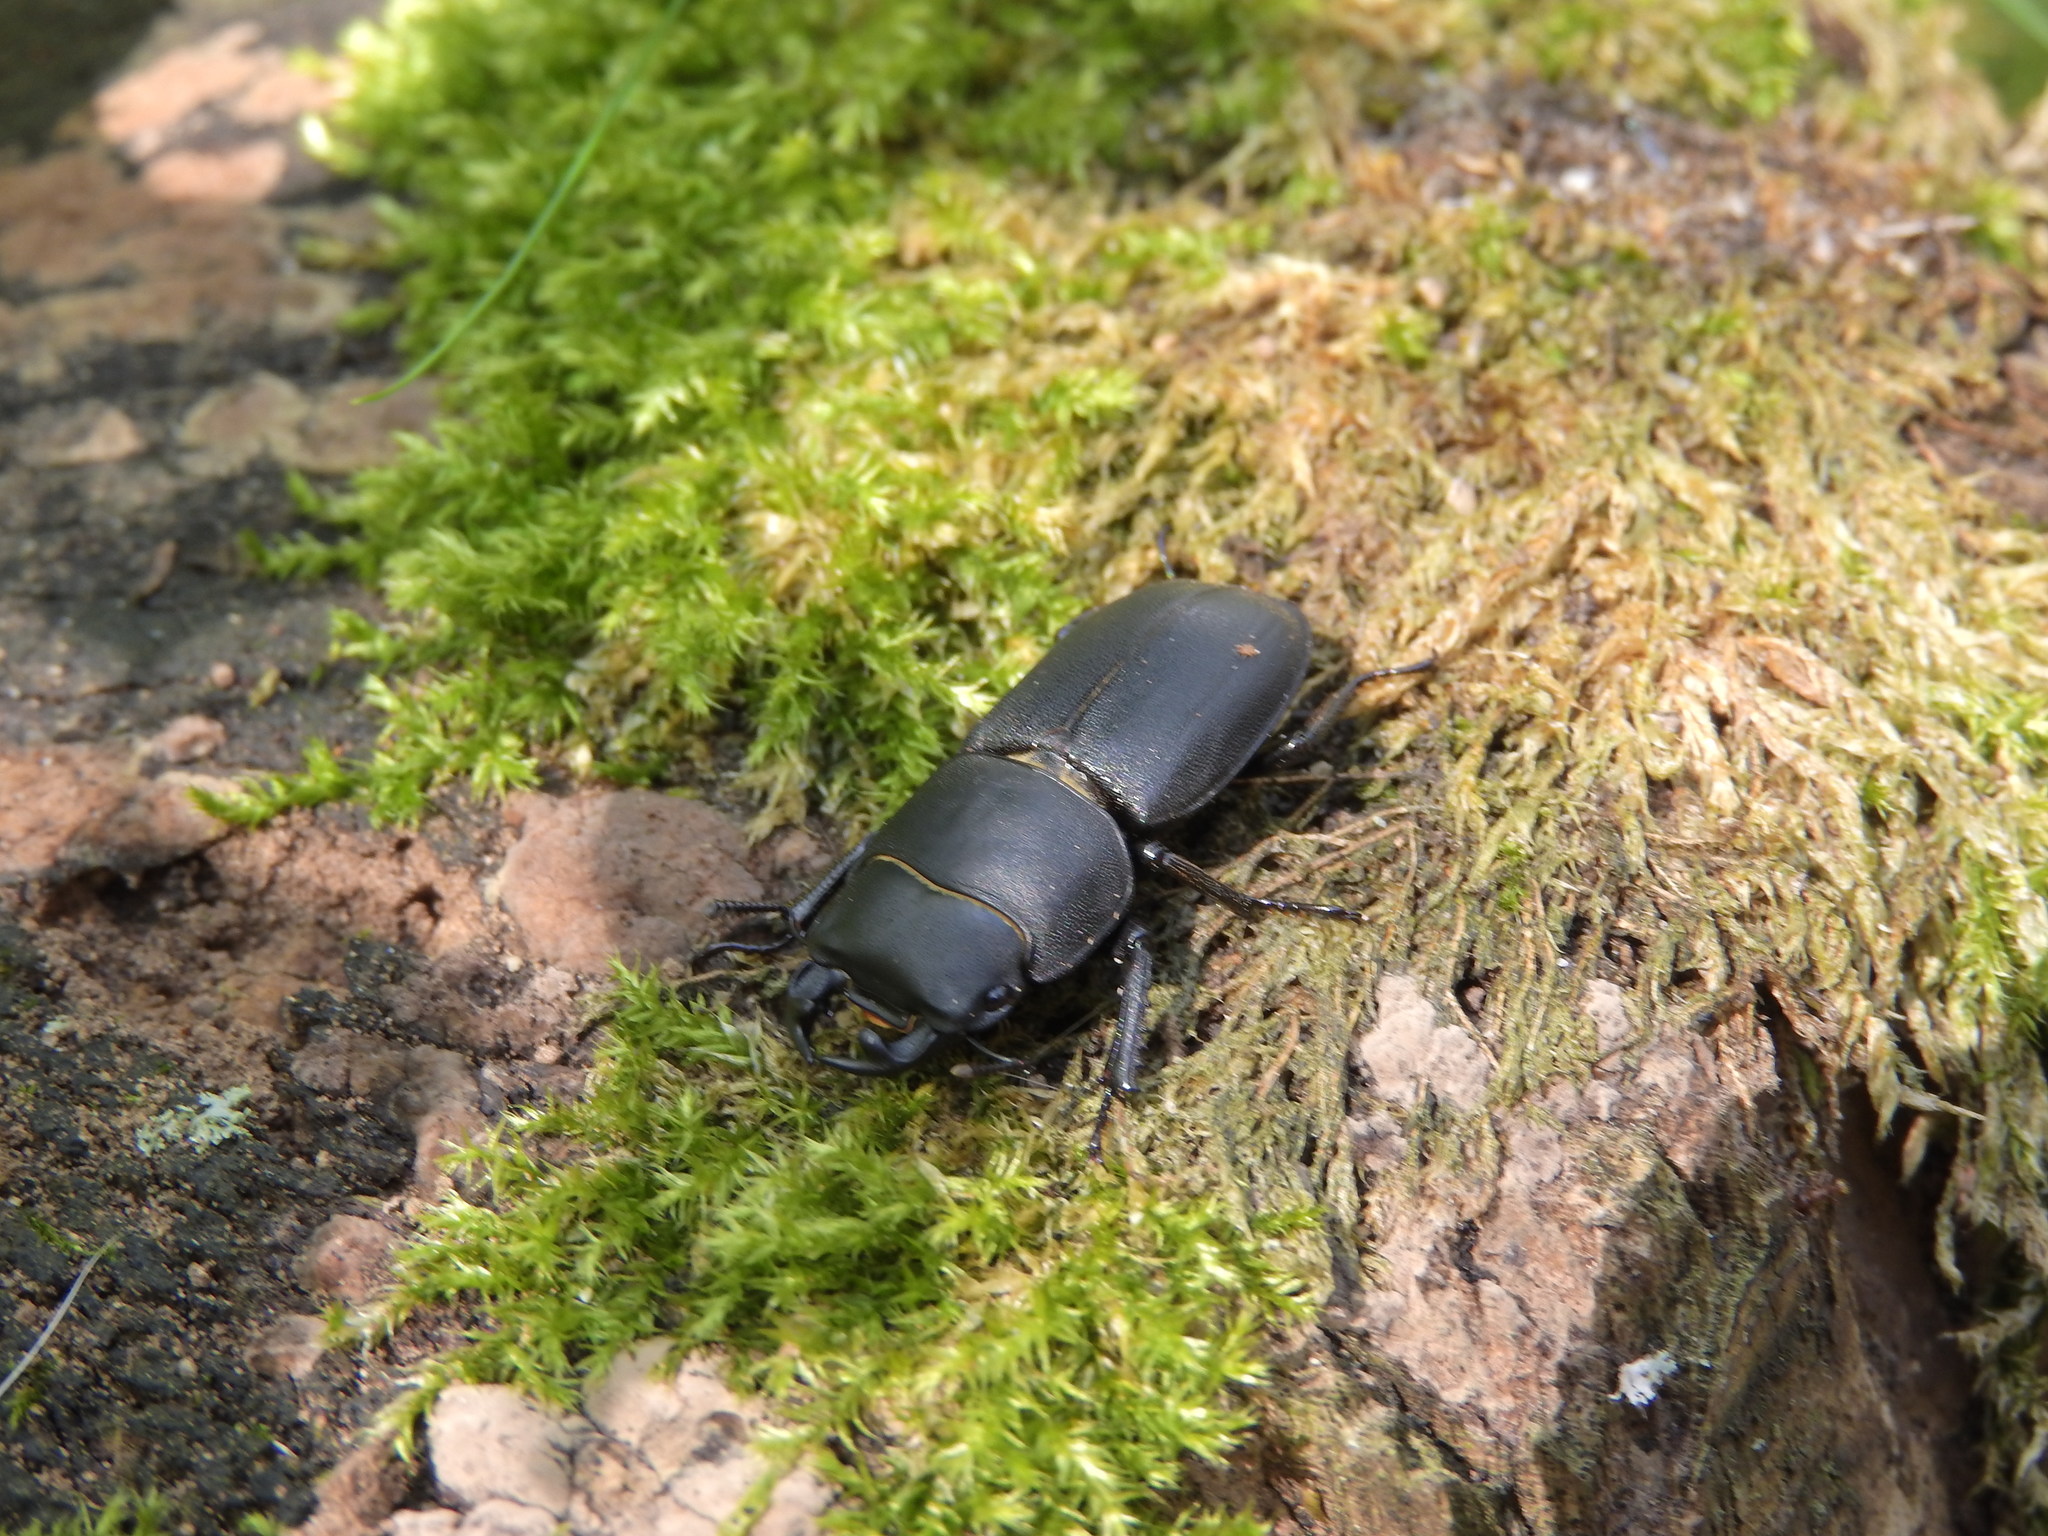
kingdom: Animalia
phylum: Arthropoda
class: Insecta
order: Coleoptera
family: Lucanidae
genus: Dorcus
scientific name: Dorcus parallelipipedus
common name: Lesser stag beetle
